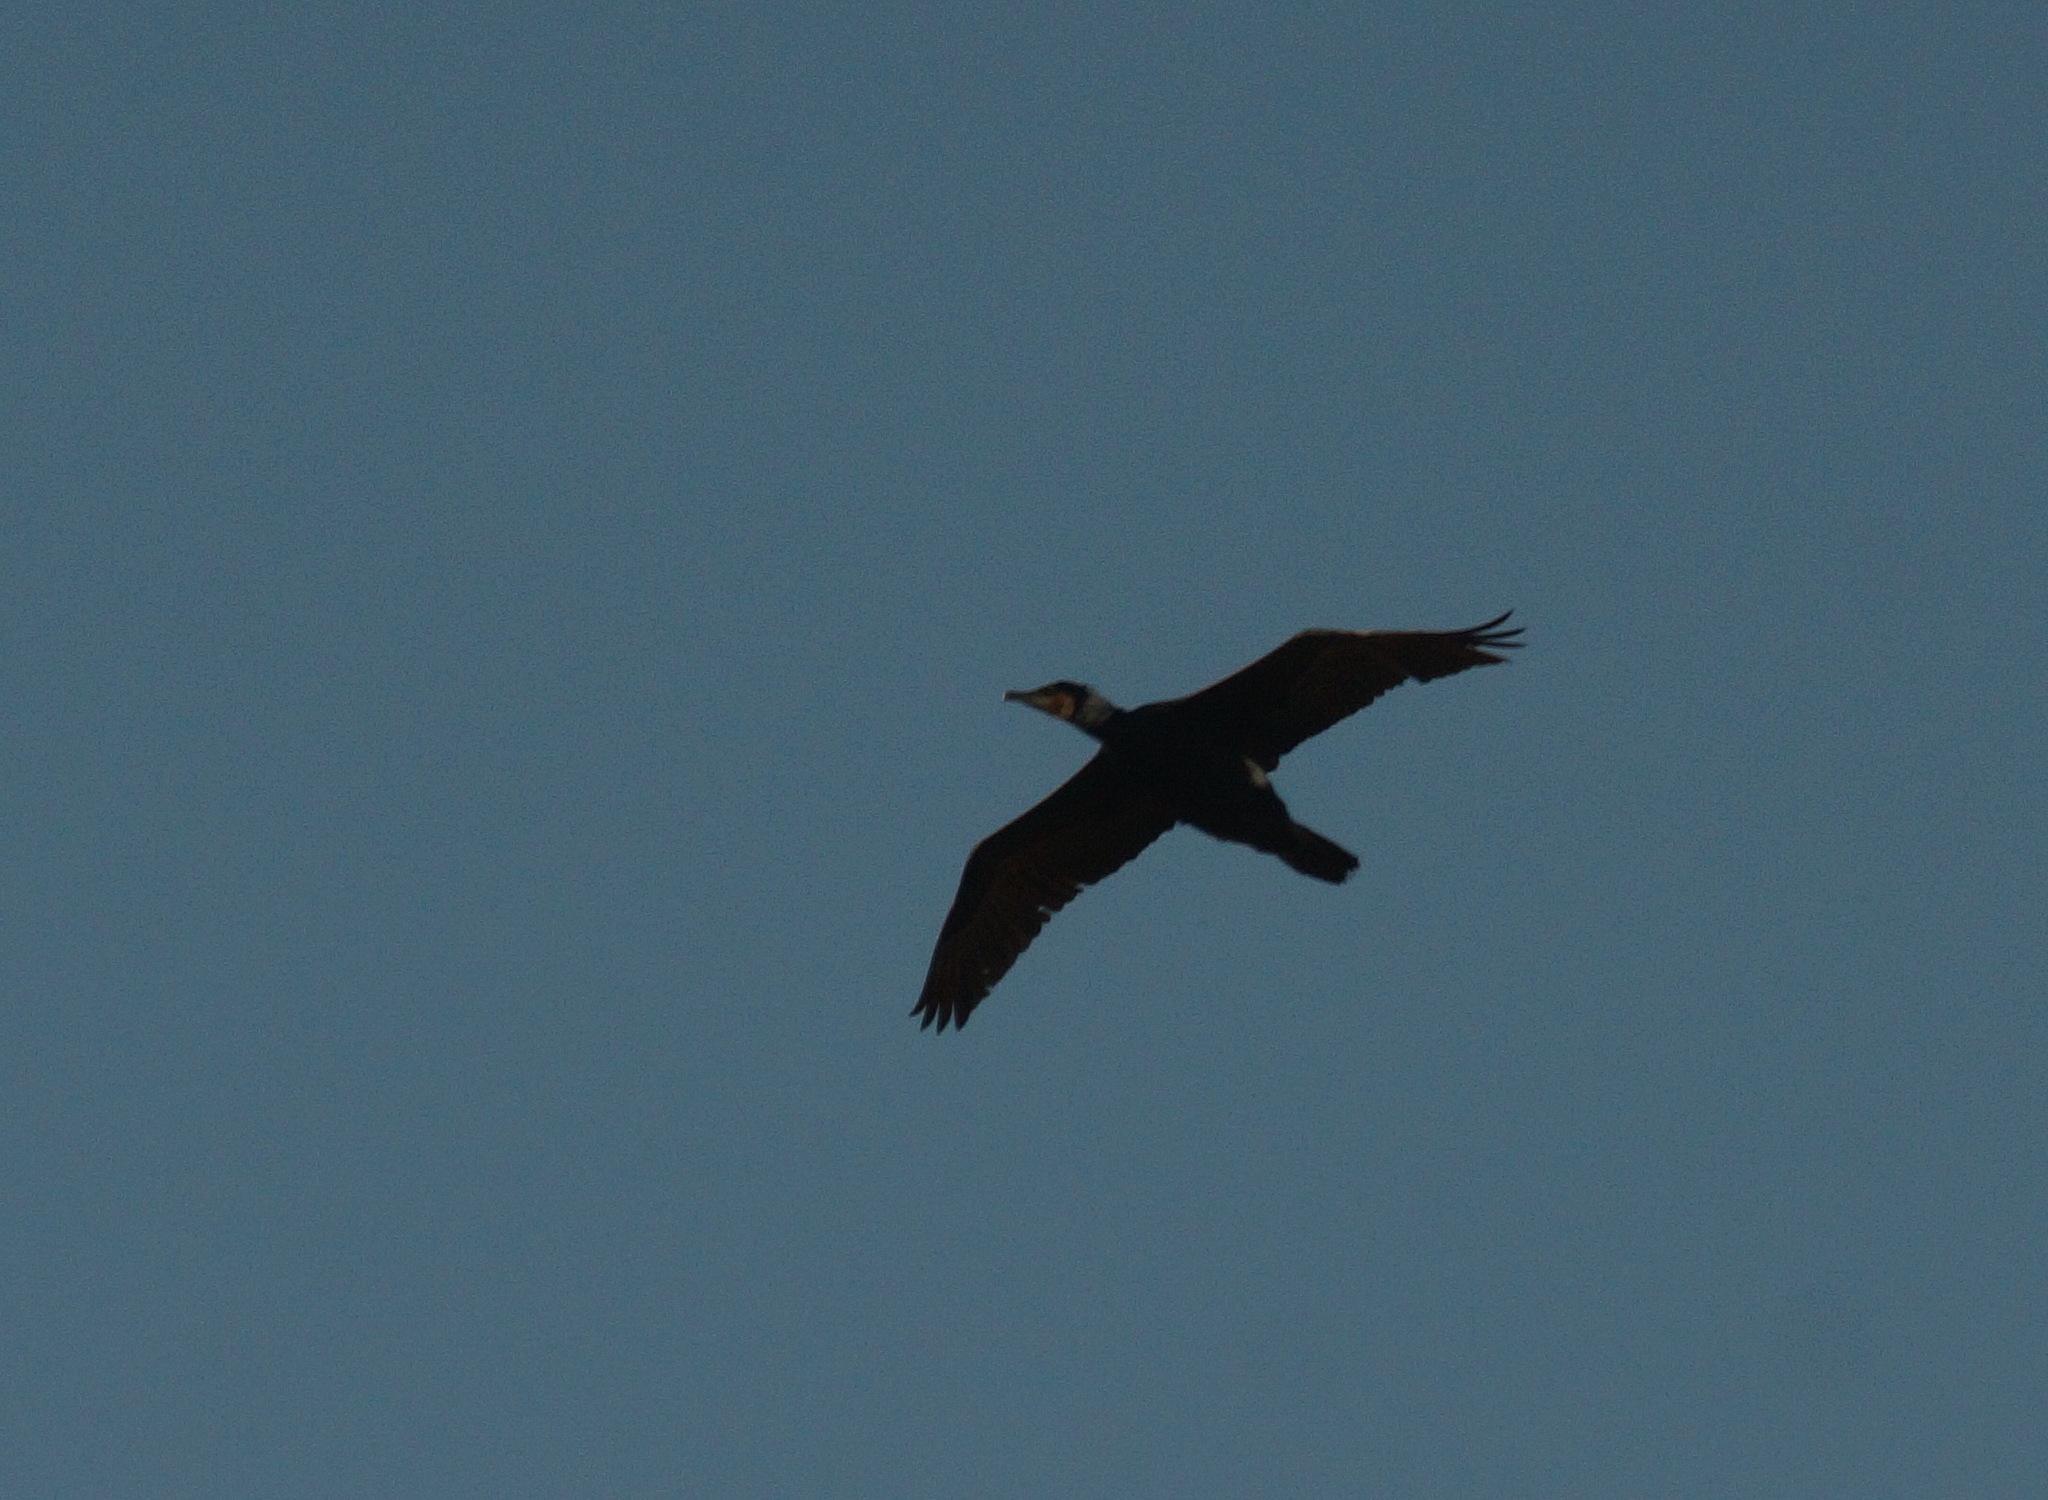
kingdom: Animalia
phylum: Chordata
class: Aves
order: Suliformes
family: Phalacrocoracidae
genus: Phalacrocorax
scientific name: Phalacrocorax carbo
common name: Great cormorant
